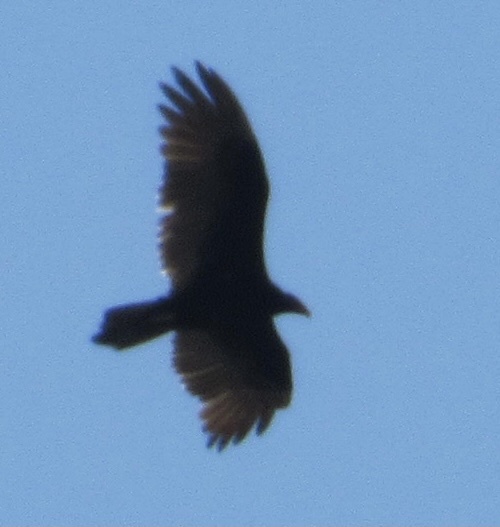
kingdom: Animalia
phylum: Chordata
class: Aves
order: Accipitriformes
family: Cathartidae
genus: Cathartes
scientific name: Cathartes aura
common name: Turkey vulture
